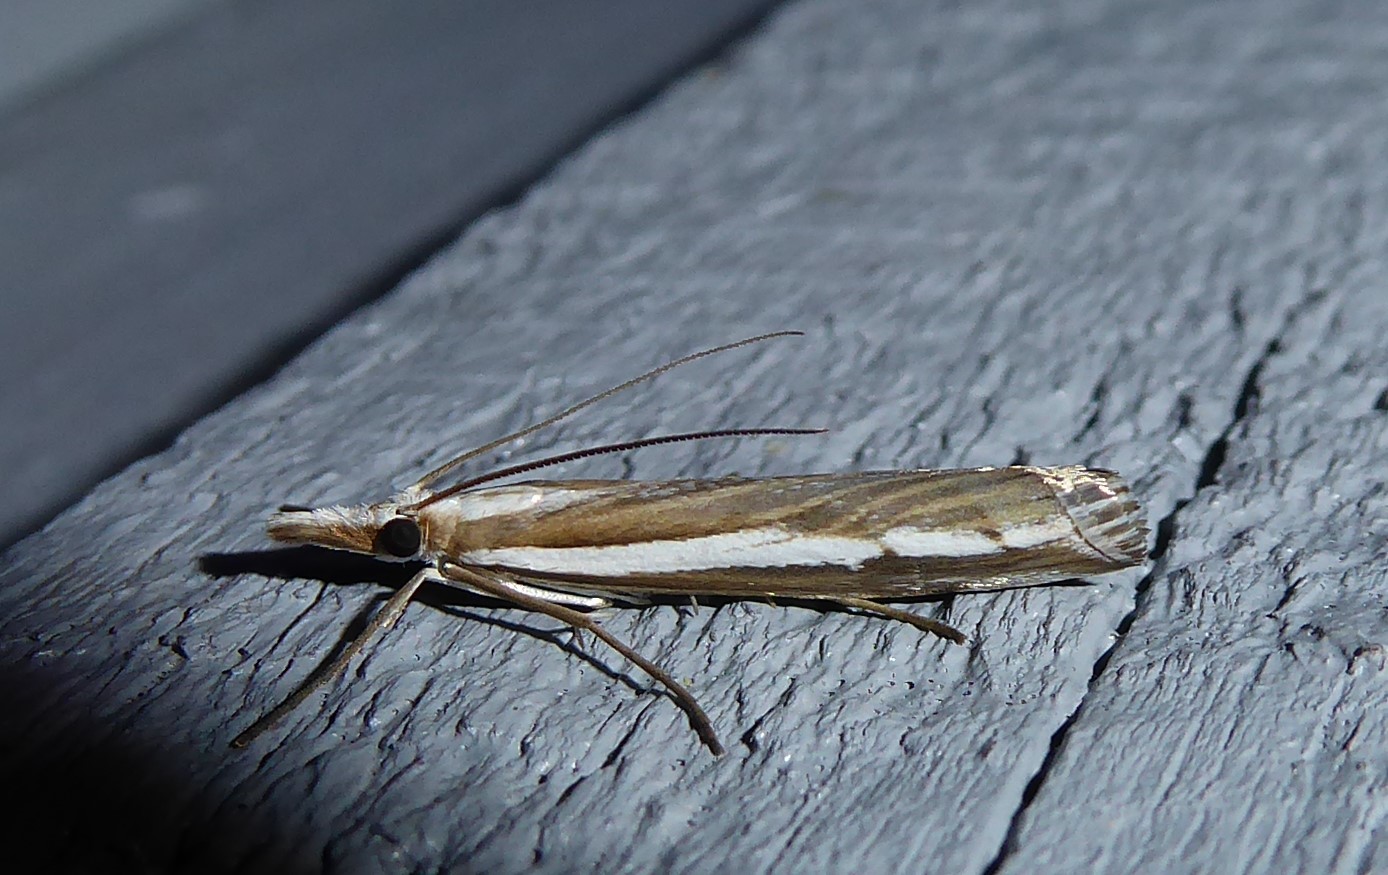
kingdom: Animalia
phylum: Arthropoda
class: Insecta
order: Lepidoptera
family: Crambidae
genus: Orocrambus
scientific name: Orocrambus vittellus
